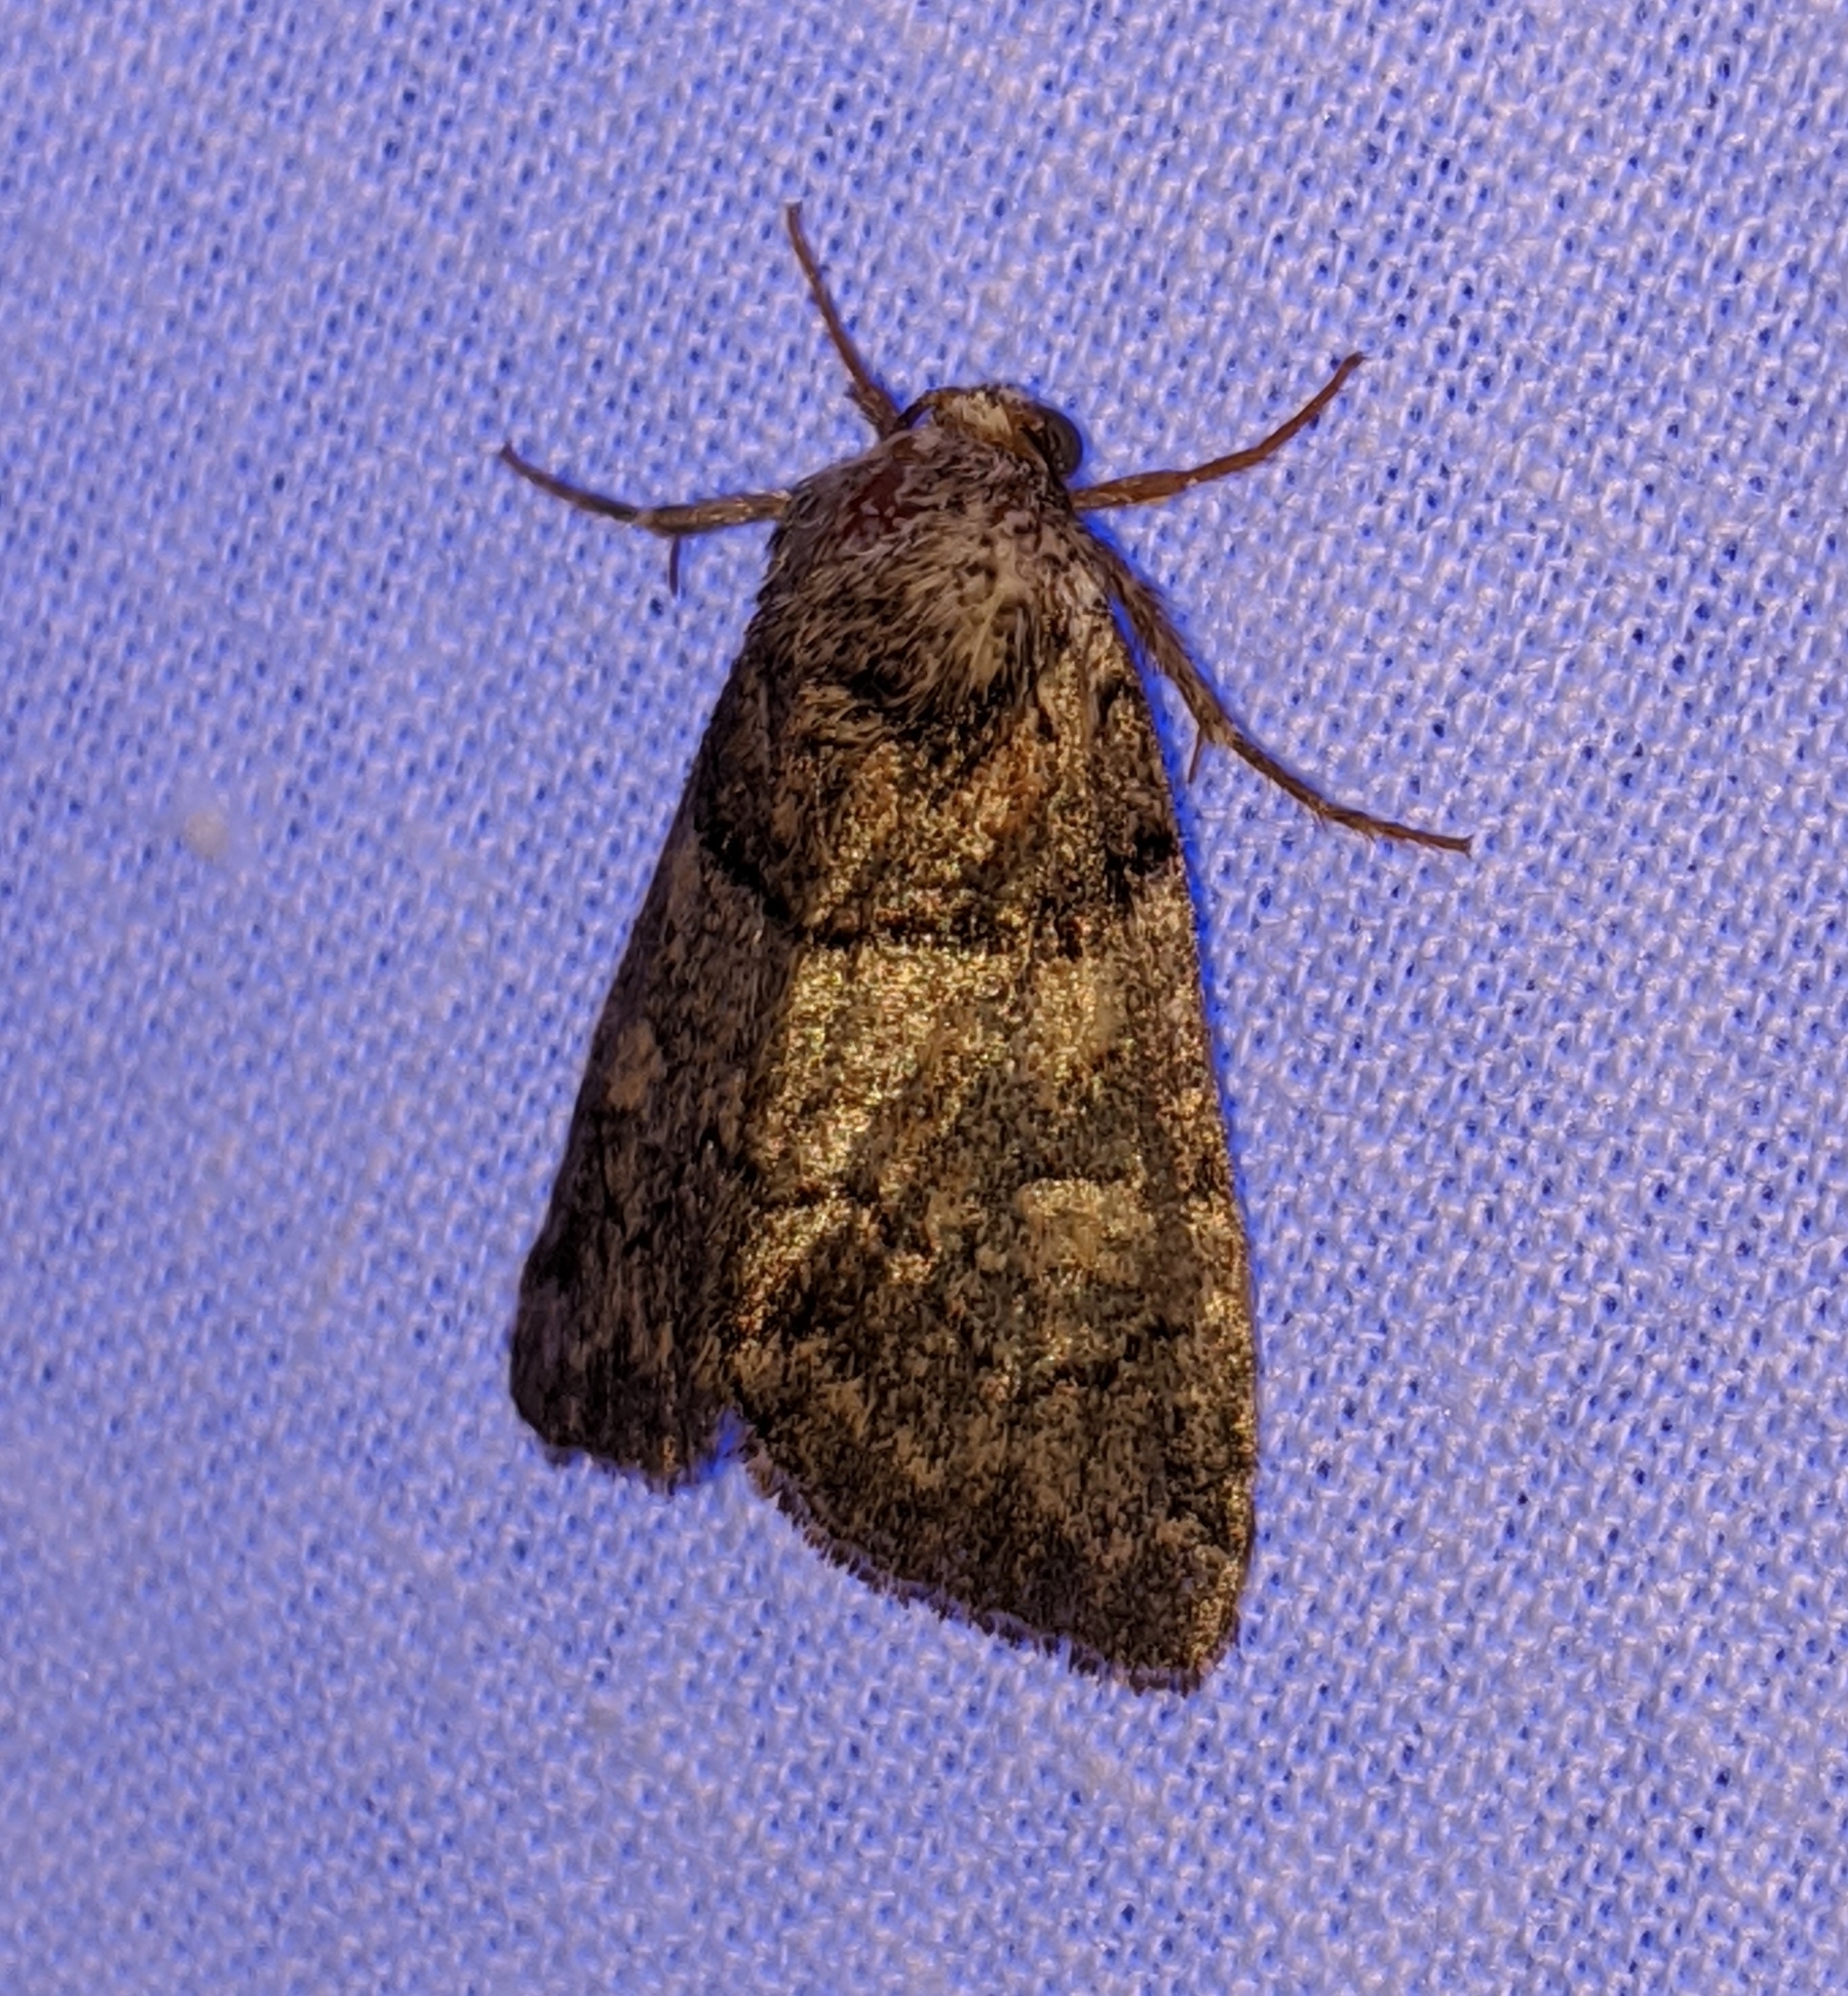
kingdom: Animalia
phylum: Arthropoda
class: Insecta
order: Lepidoptera
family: Noctuidae
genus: Cosmia
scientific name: Cosmia praeacuta
